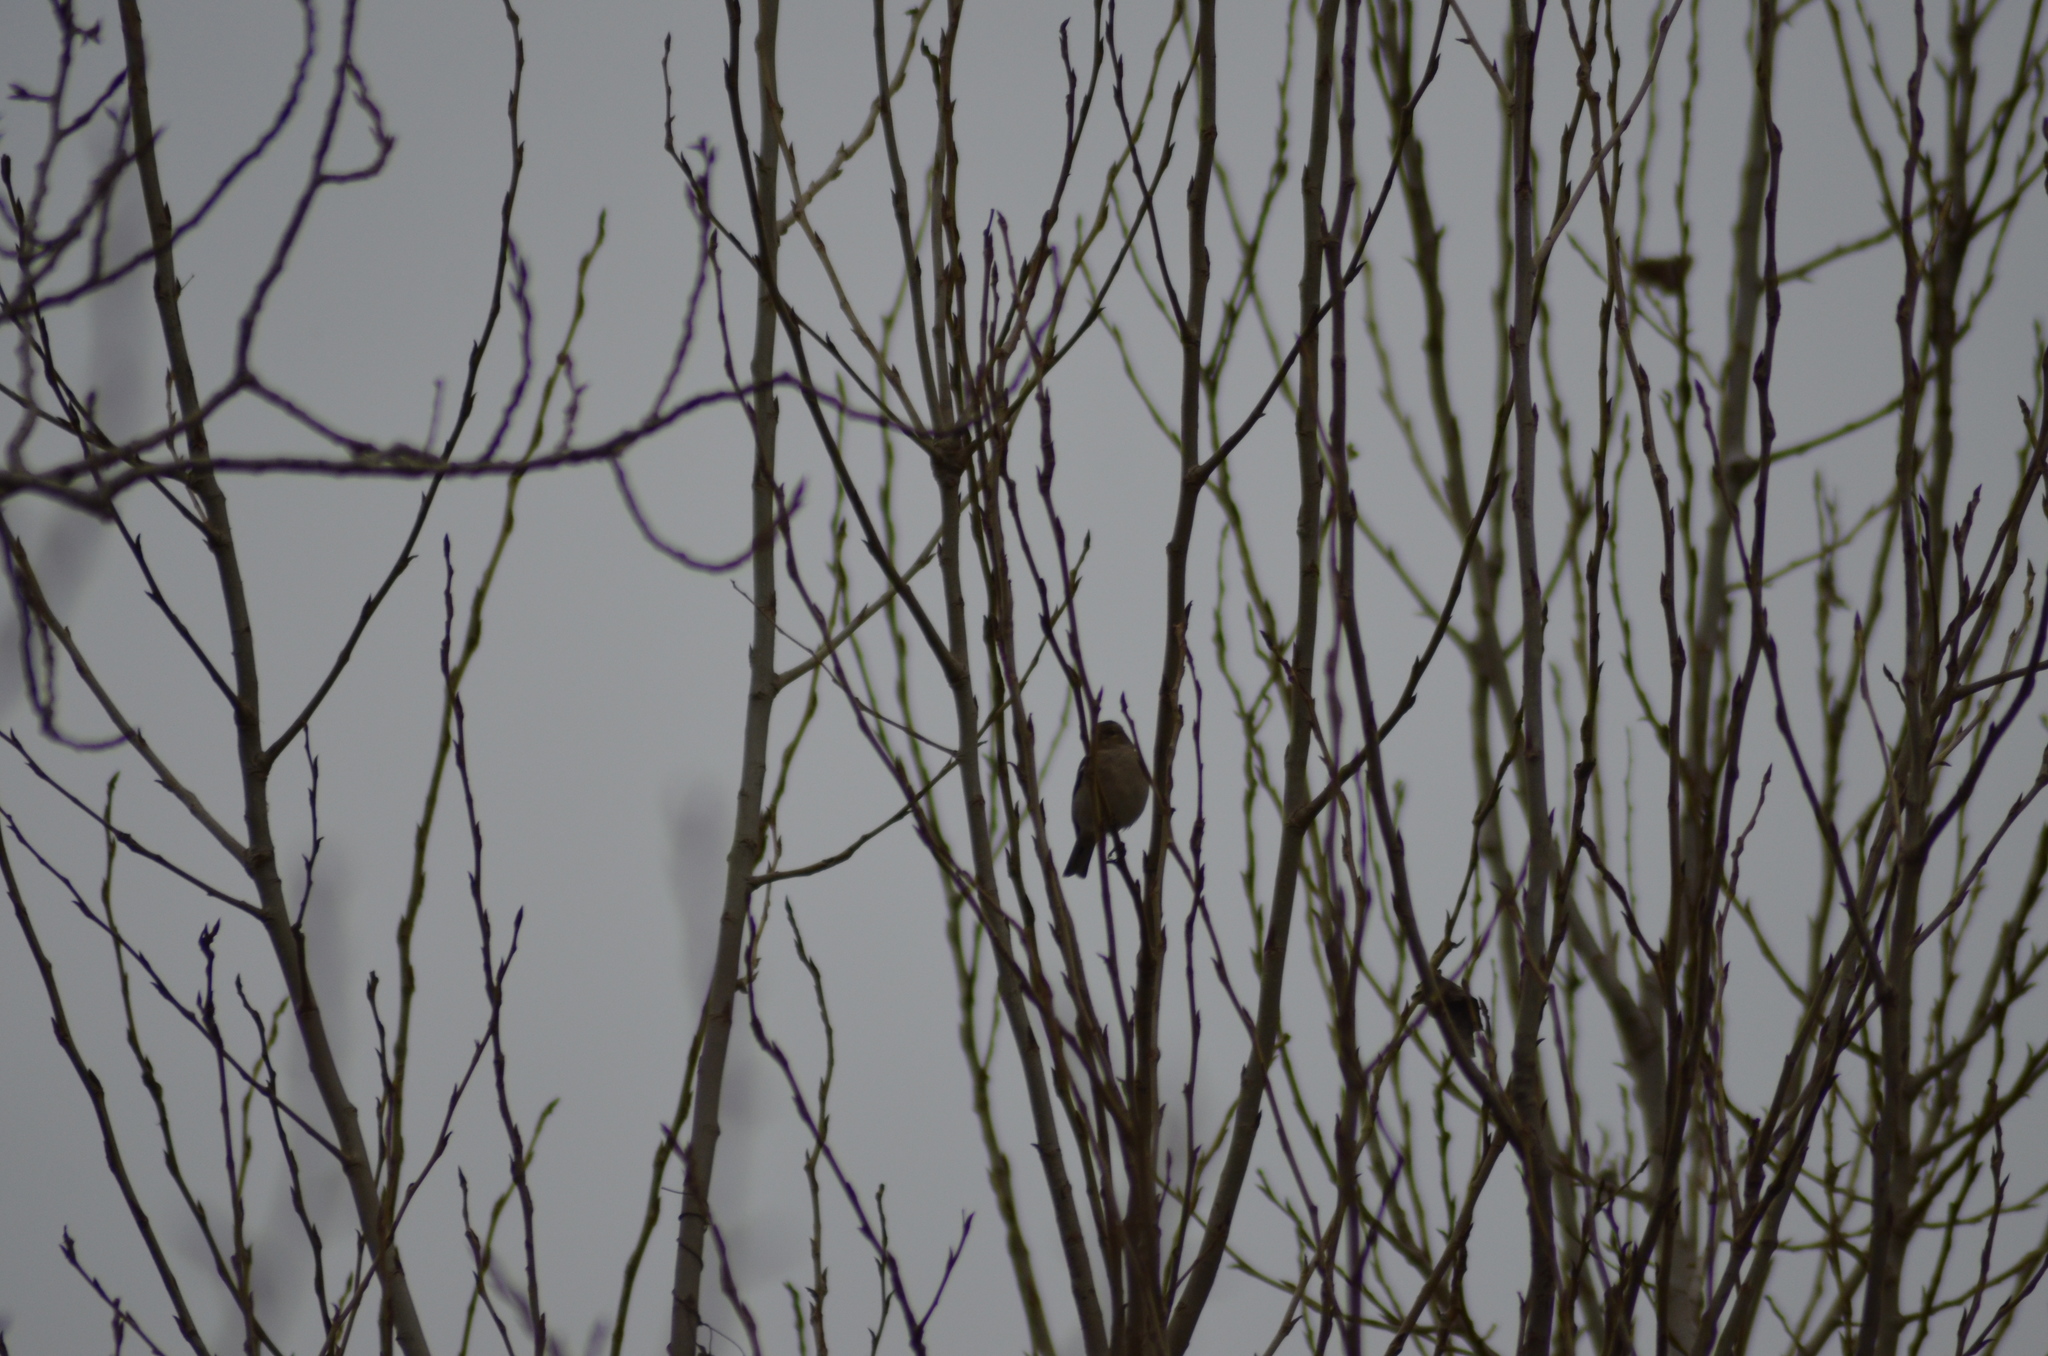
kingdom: Animalia
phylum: Chordata
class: Aves
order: Passeriformes
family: Fringillidae
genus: Fringilla
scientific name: Fringilla coelebs
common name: Common chaffinch
